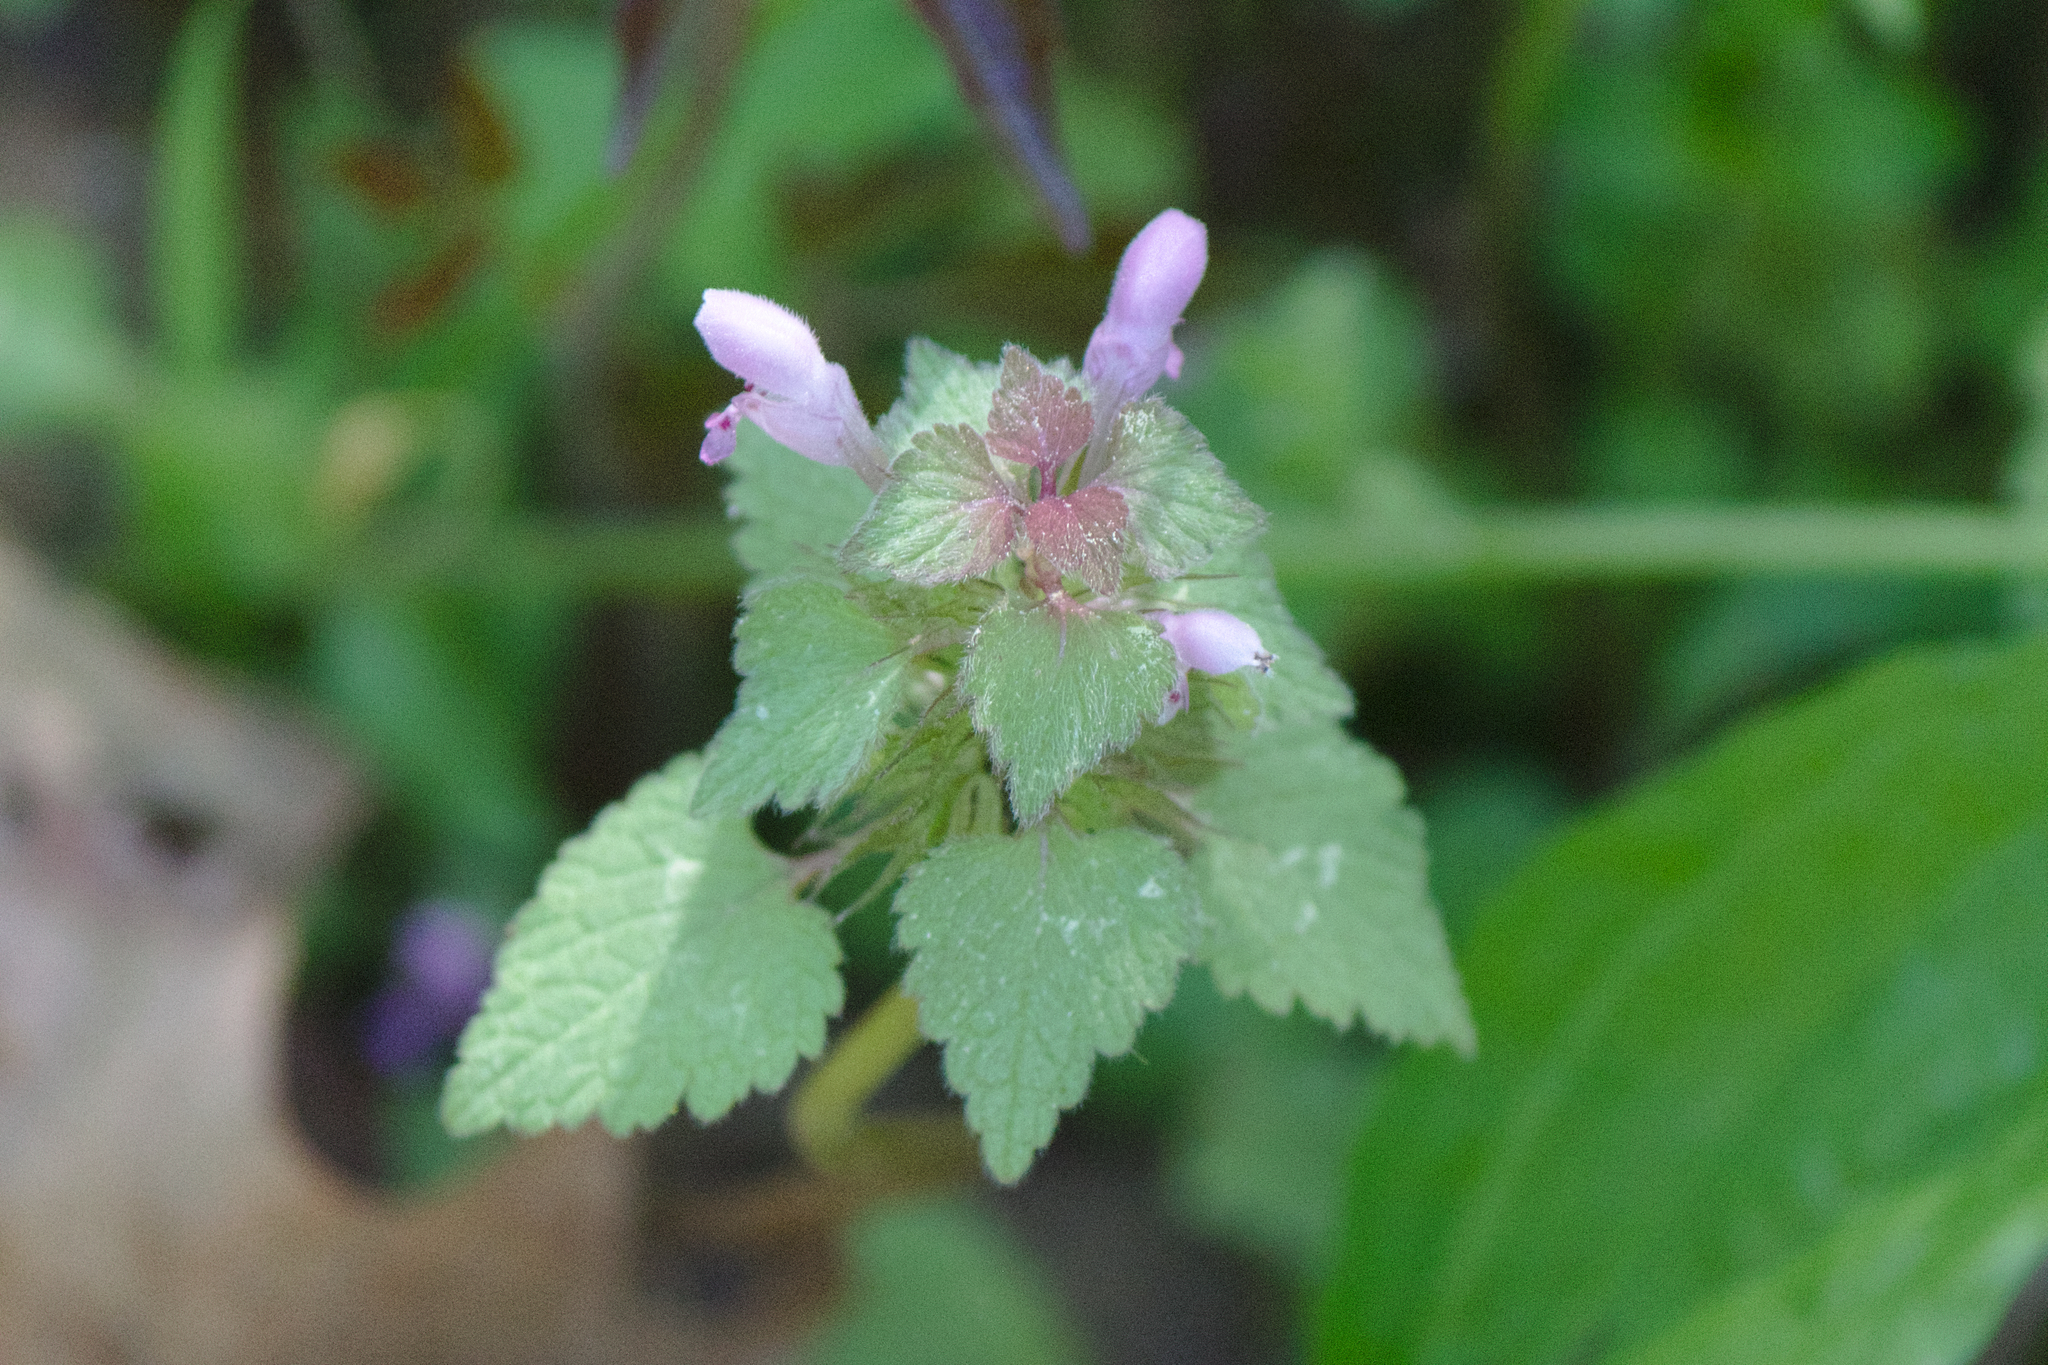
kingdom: Plantae
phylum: Tracheophyta
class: Magnoliopsida
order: Lamiales
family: Lamiaceae
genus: Lamium
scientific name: Lamium purpureum
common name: Red dead-nettle
